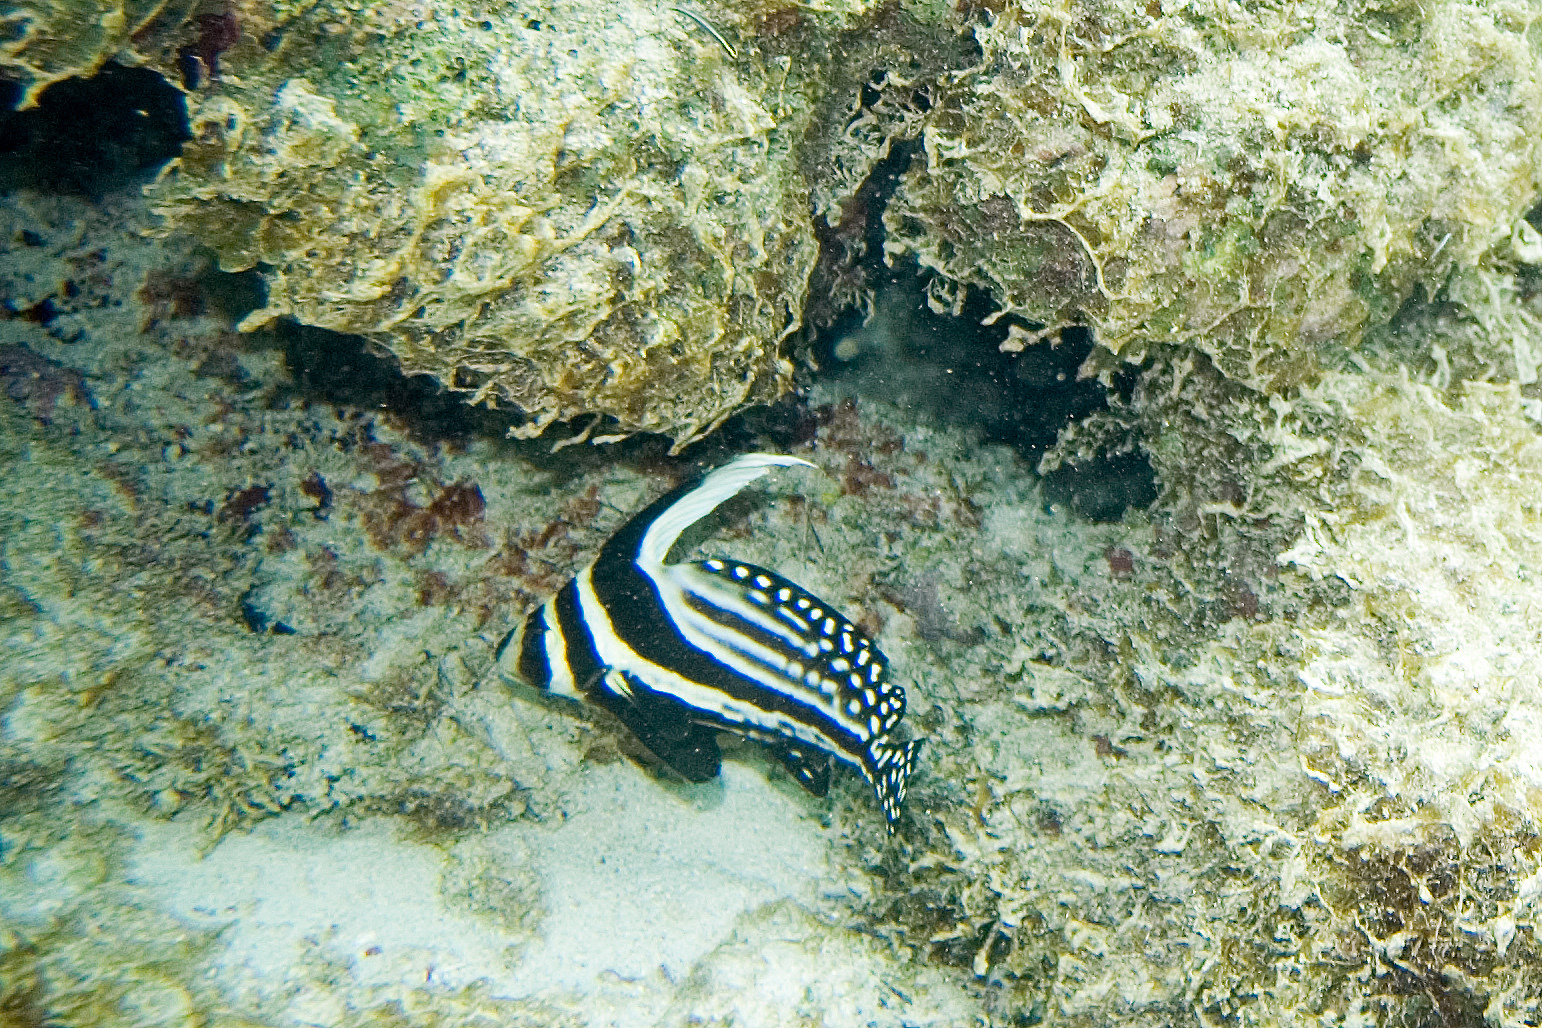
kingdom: Animalia
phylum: Chordata
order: Perciformes
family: Sciaenidae
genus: Equetus
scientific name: Equetus punctatus
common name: Spotted drum
